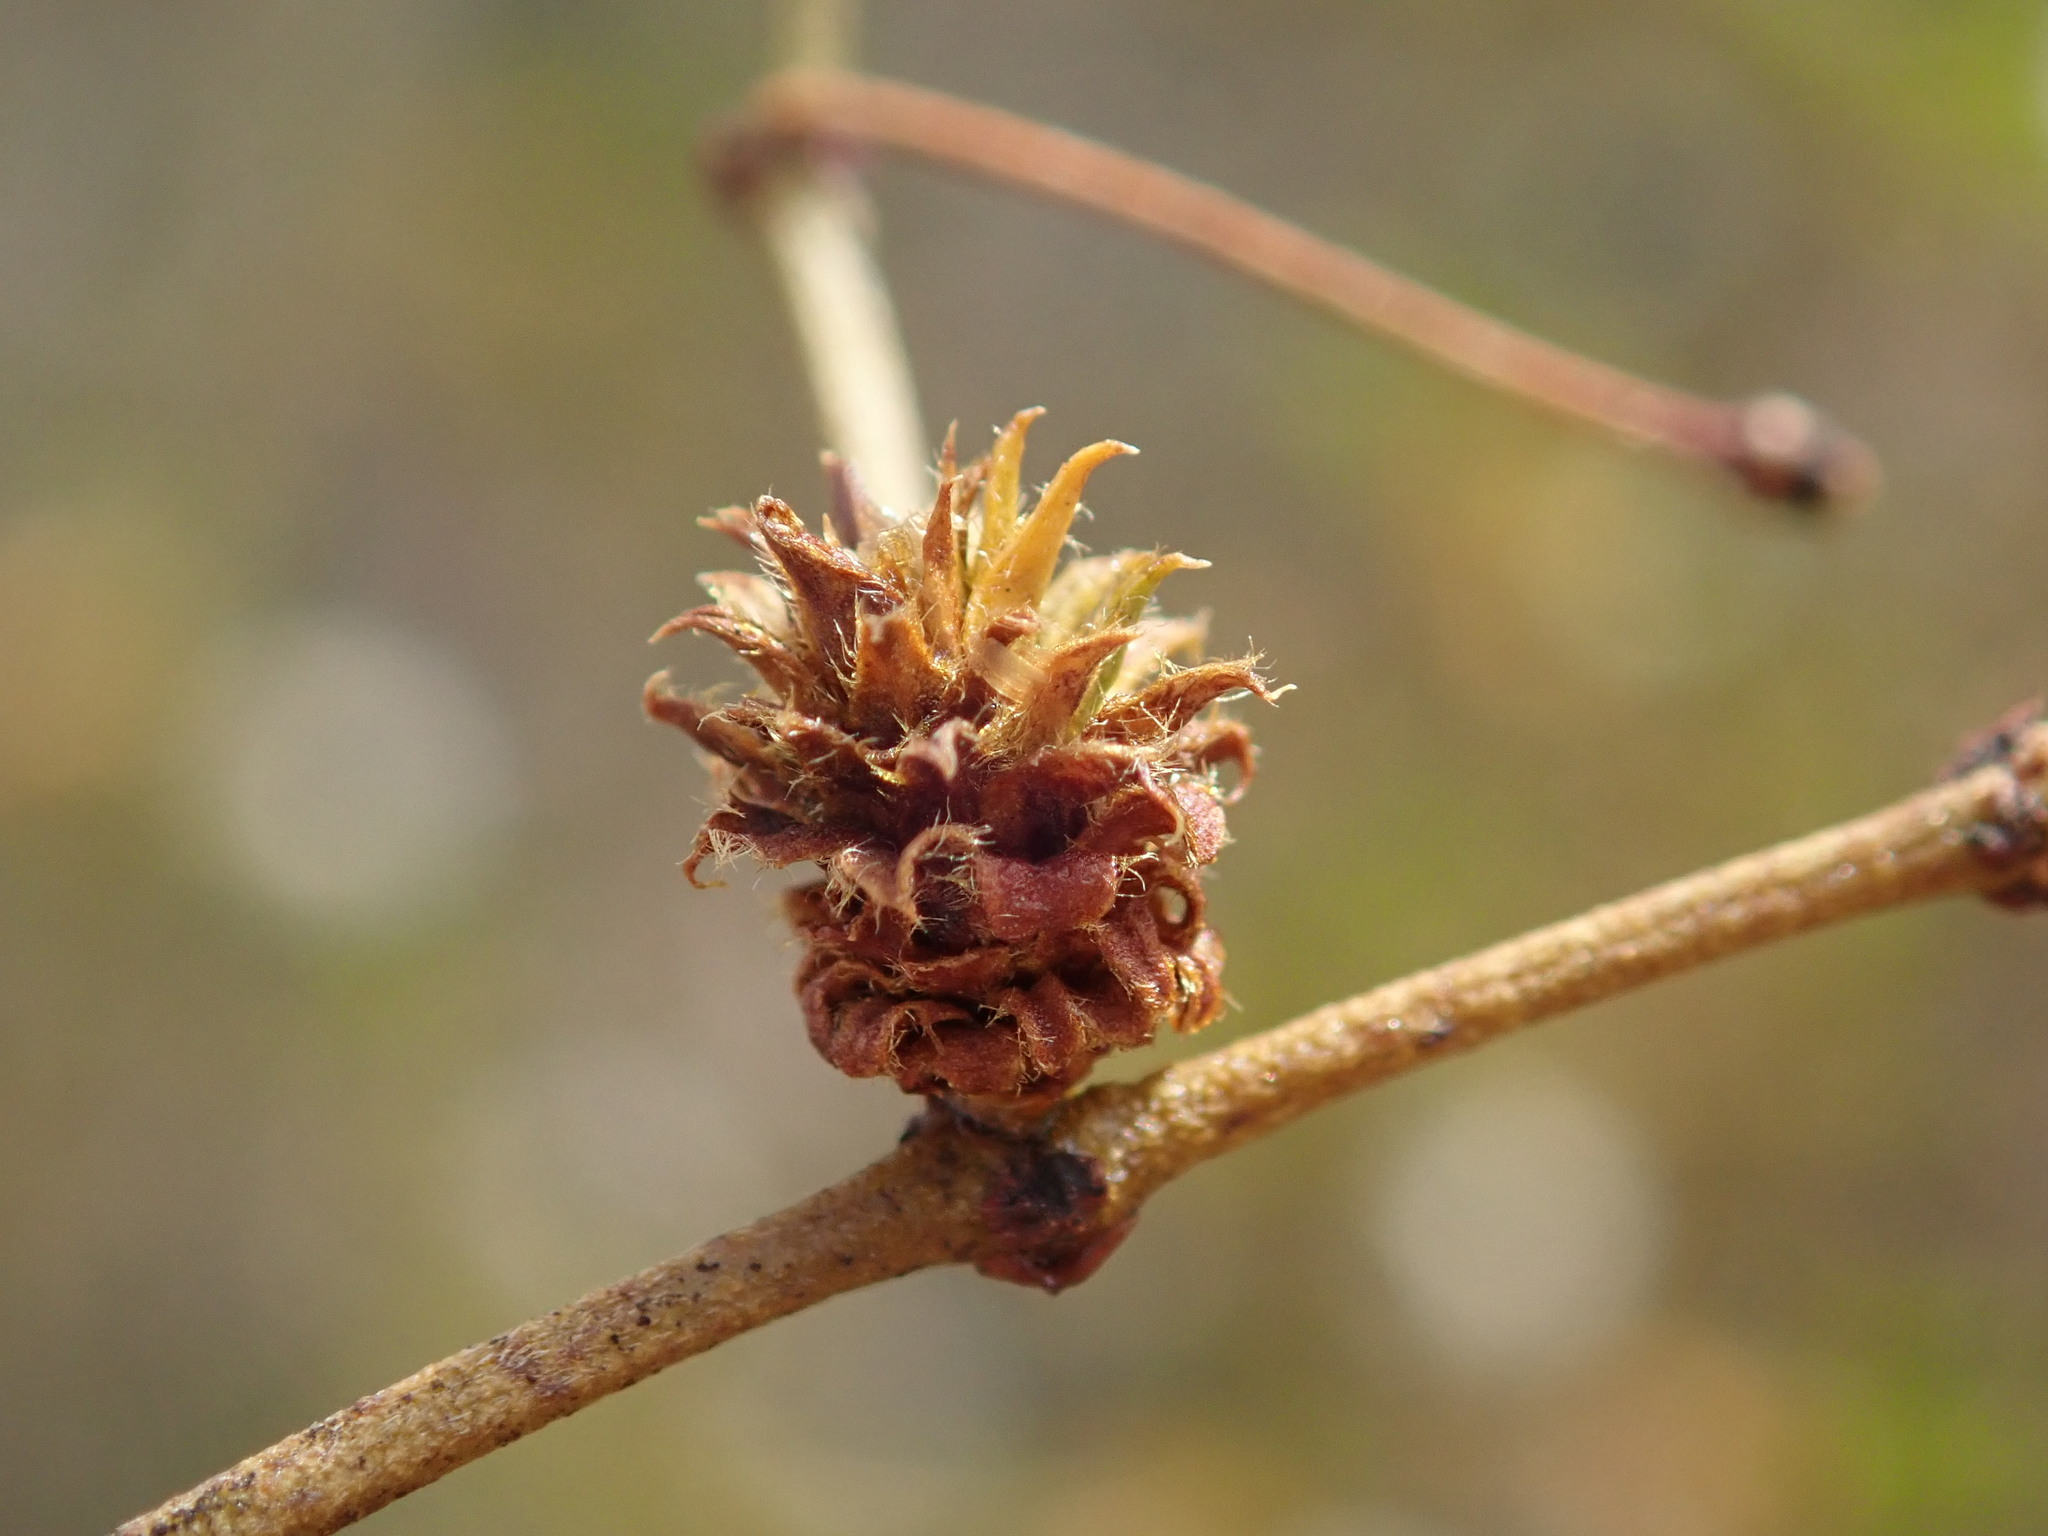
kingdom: Animalia
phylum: Arthropoda
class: Insecta
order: Diptera
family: Cecidomyiidae
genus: Asphondylia
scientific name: Asphondylia rosetta
